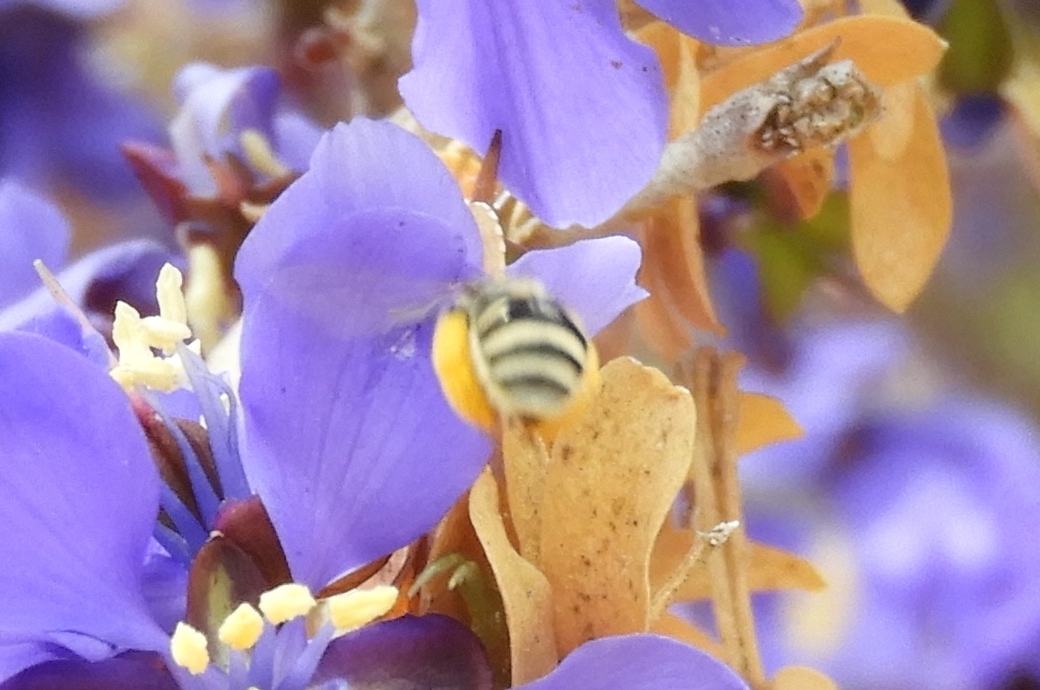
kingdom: Animalia
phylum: Arthropoda
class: Insecta
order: Hymenoptera
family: Apidae
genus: Exomalopsis
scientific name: Exomalopsis
